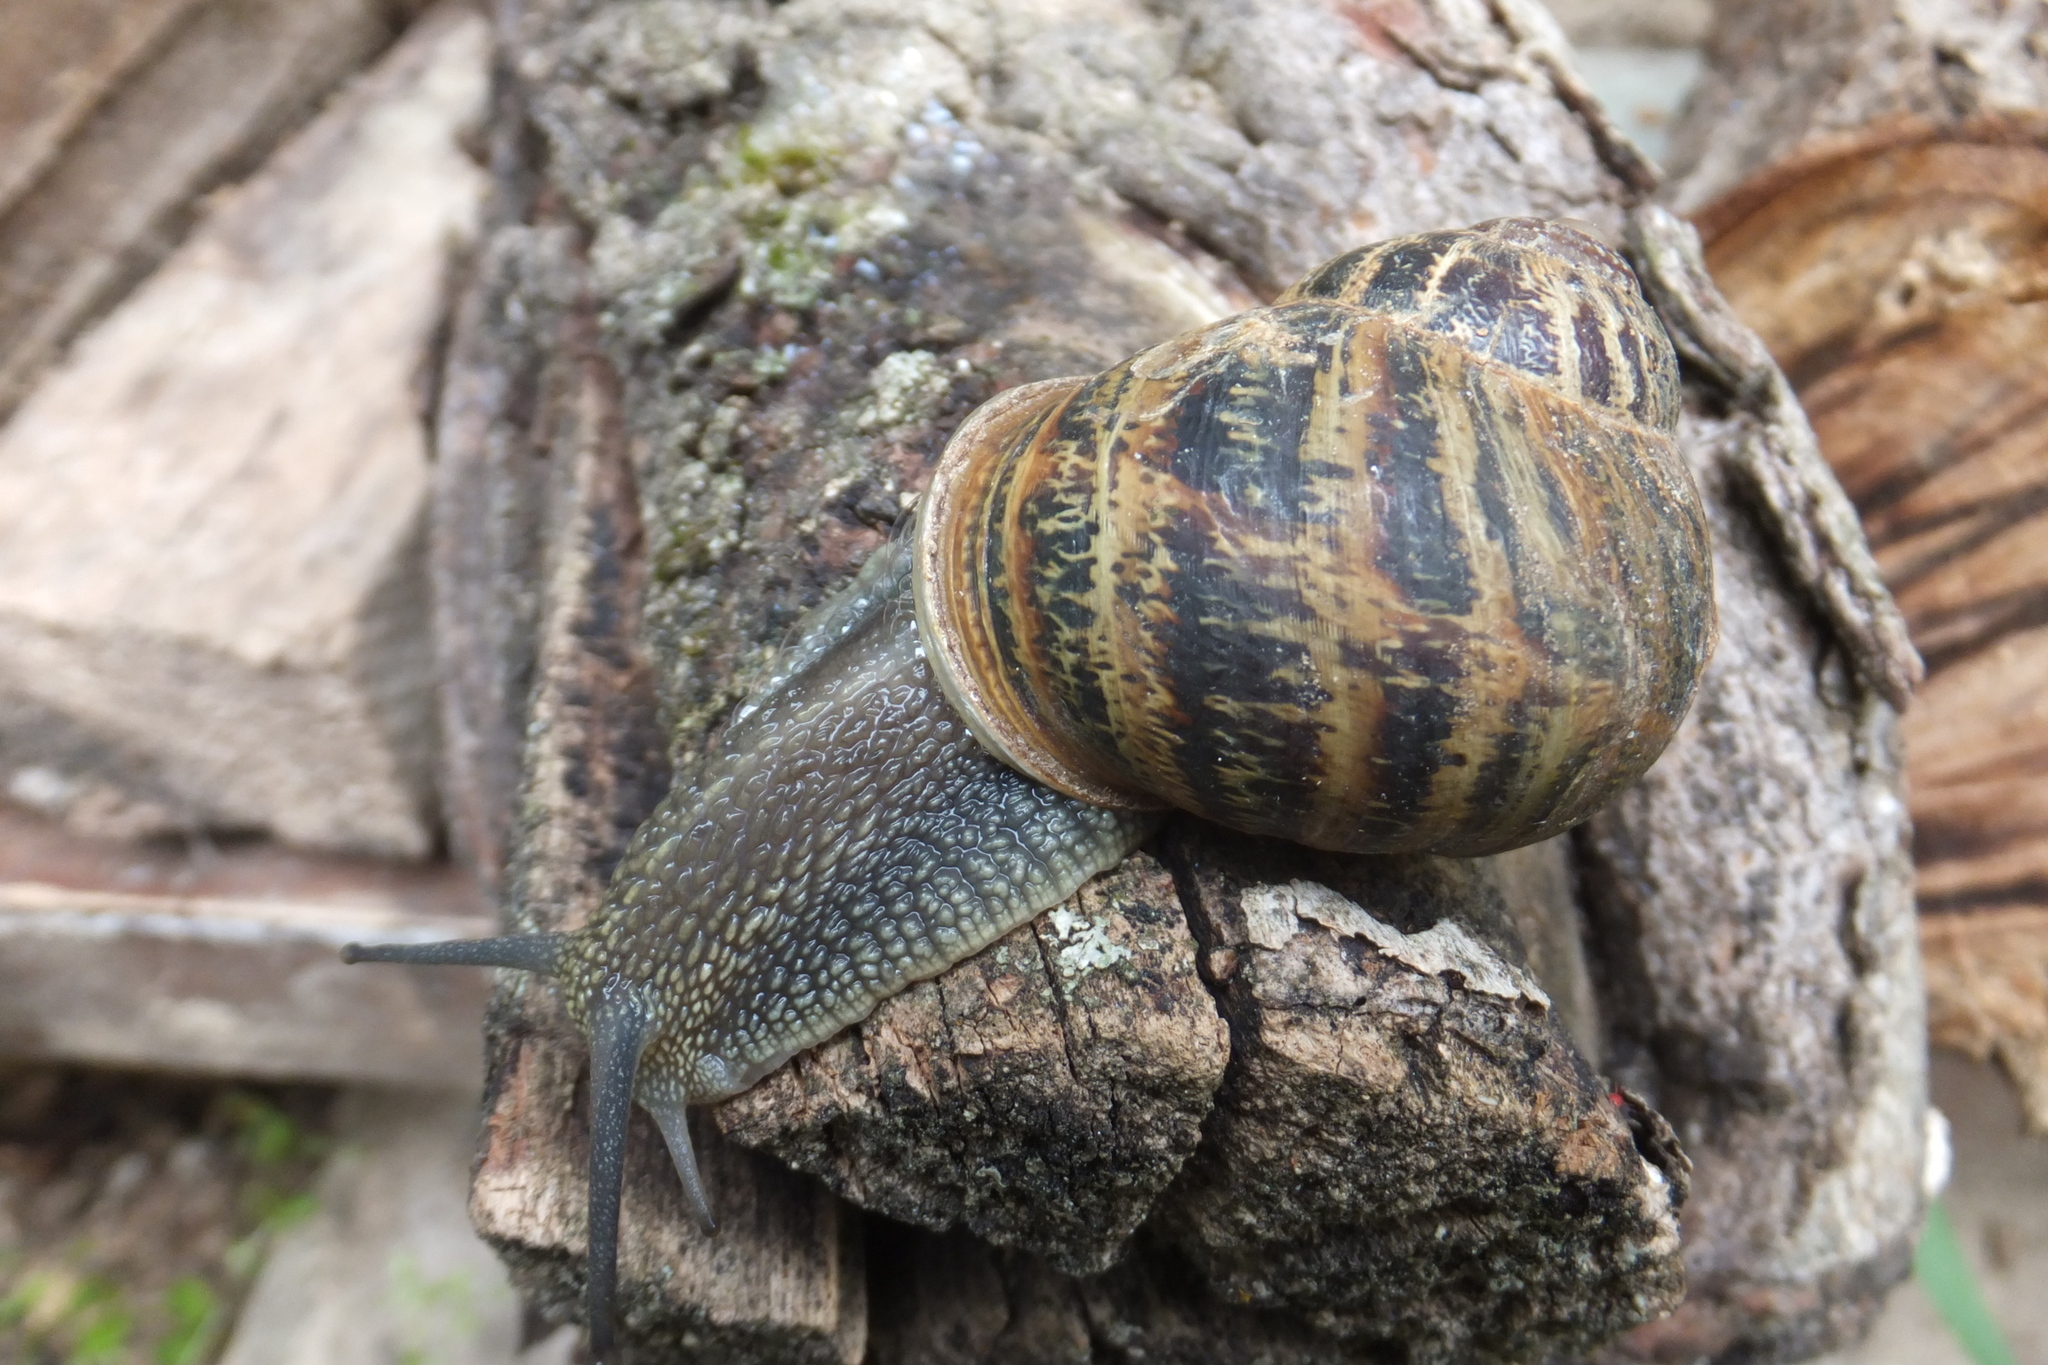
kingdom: Animalia
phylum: Mollusca
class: Gastropoda
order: Stylommatophora
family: Helicidae
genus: Cornu
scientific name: Cornu aspersum
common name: Brown garden snail
